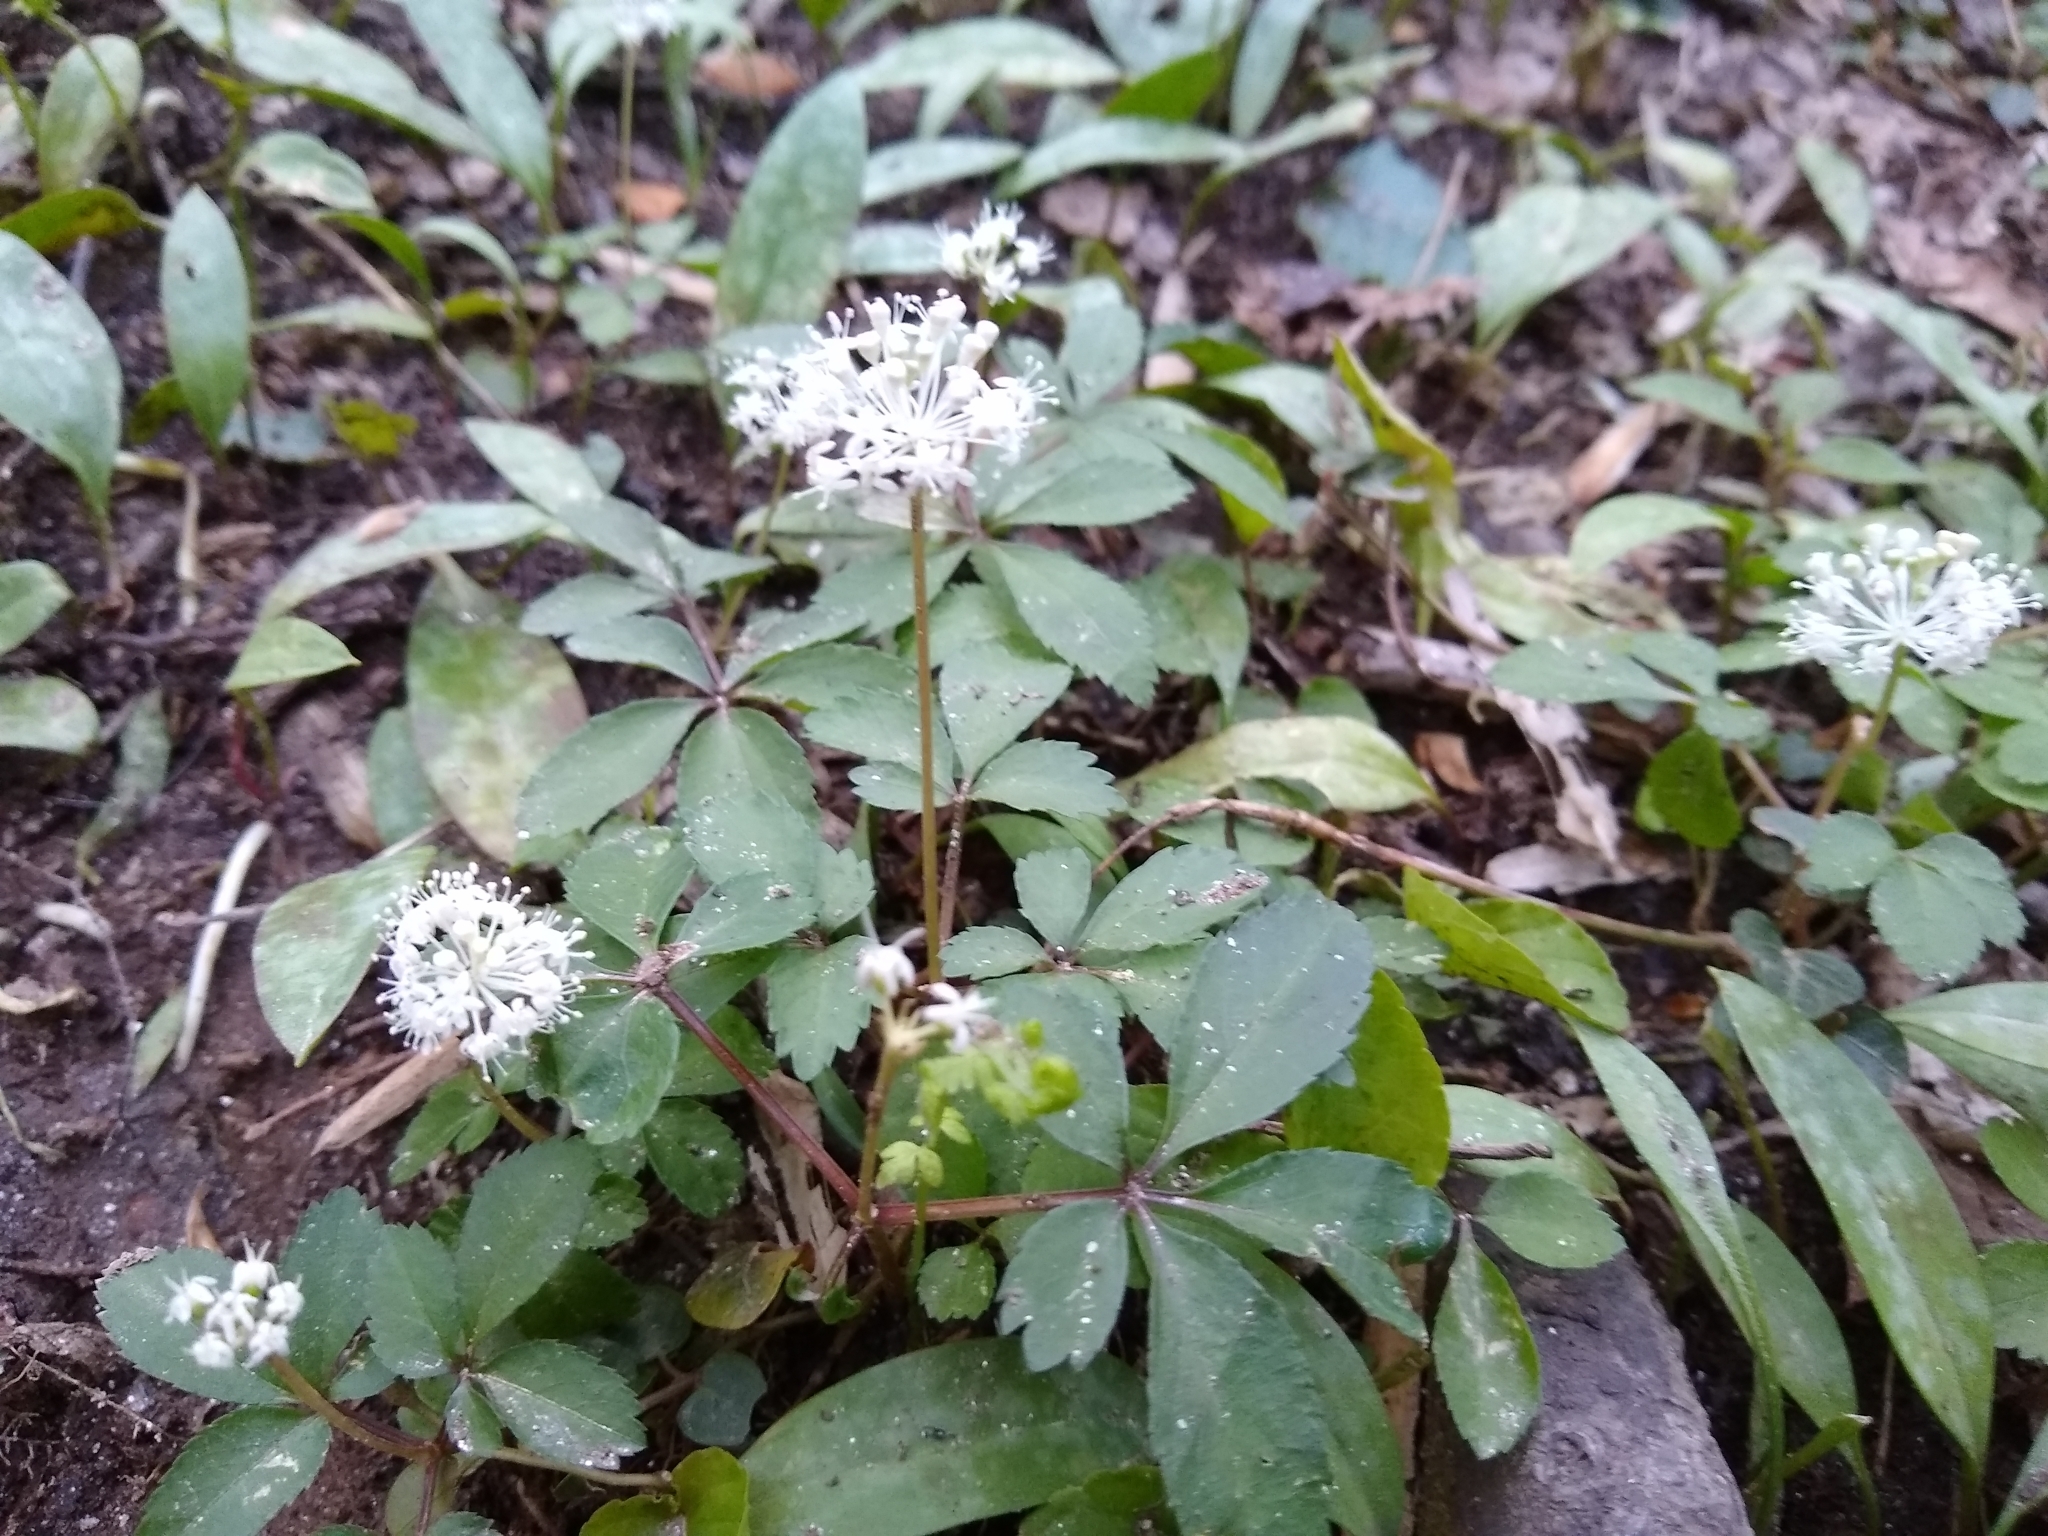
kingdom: Plantae
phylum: Tracheophyta
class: Magnoliopsida
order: Apiales
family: Araliaceae
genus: Panax
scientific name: Panax trifolius
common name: Dwarf ginseng
